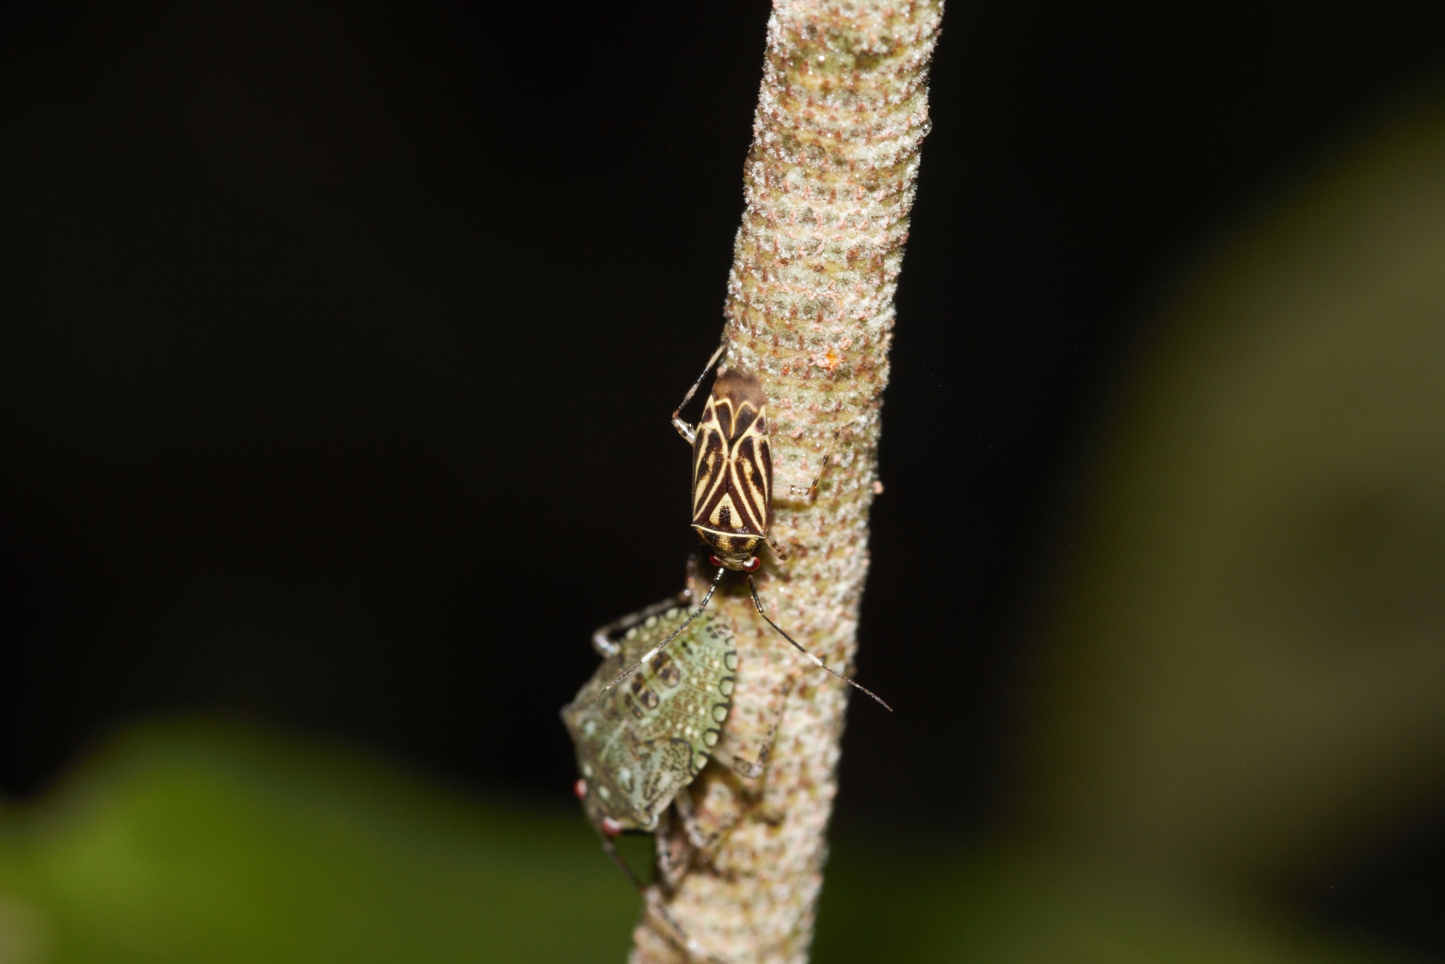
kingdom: Animalia
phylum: Arthropoda
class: Insecta
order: Hemiptera
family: Miridae
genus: Piasus
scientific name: Piasus cribricollis
